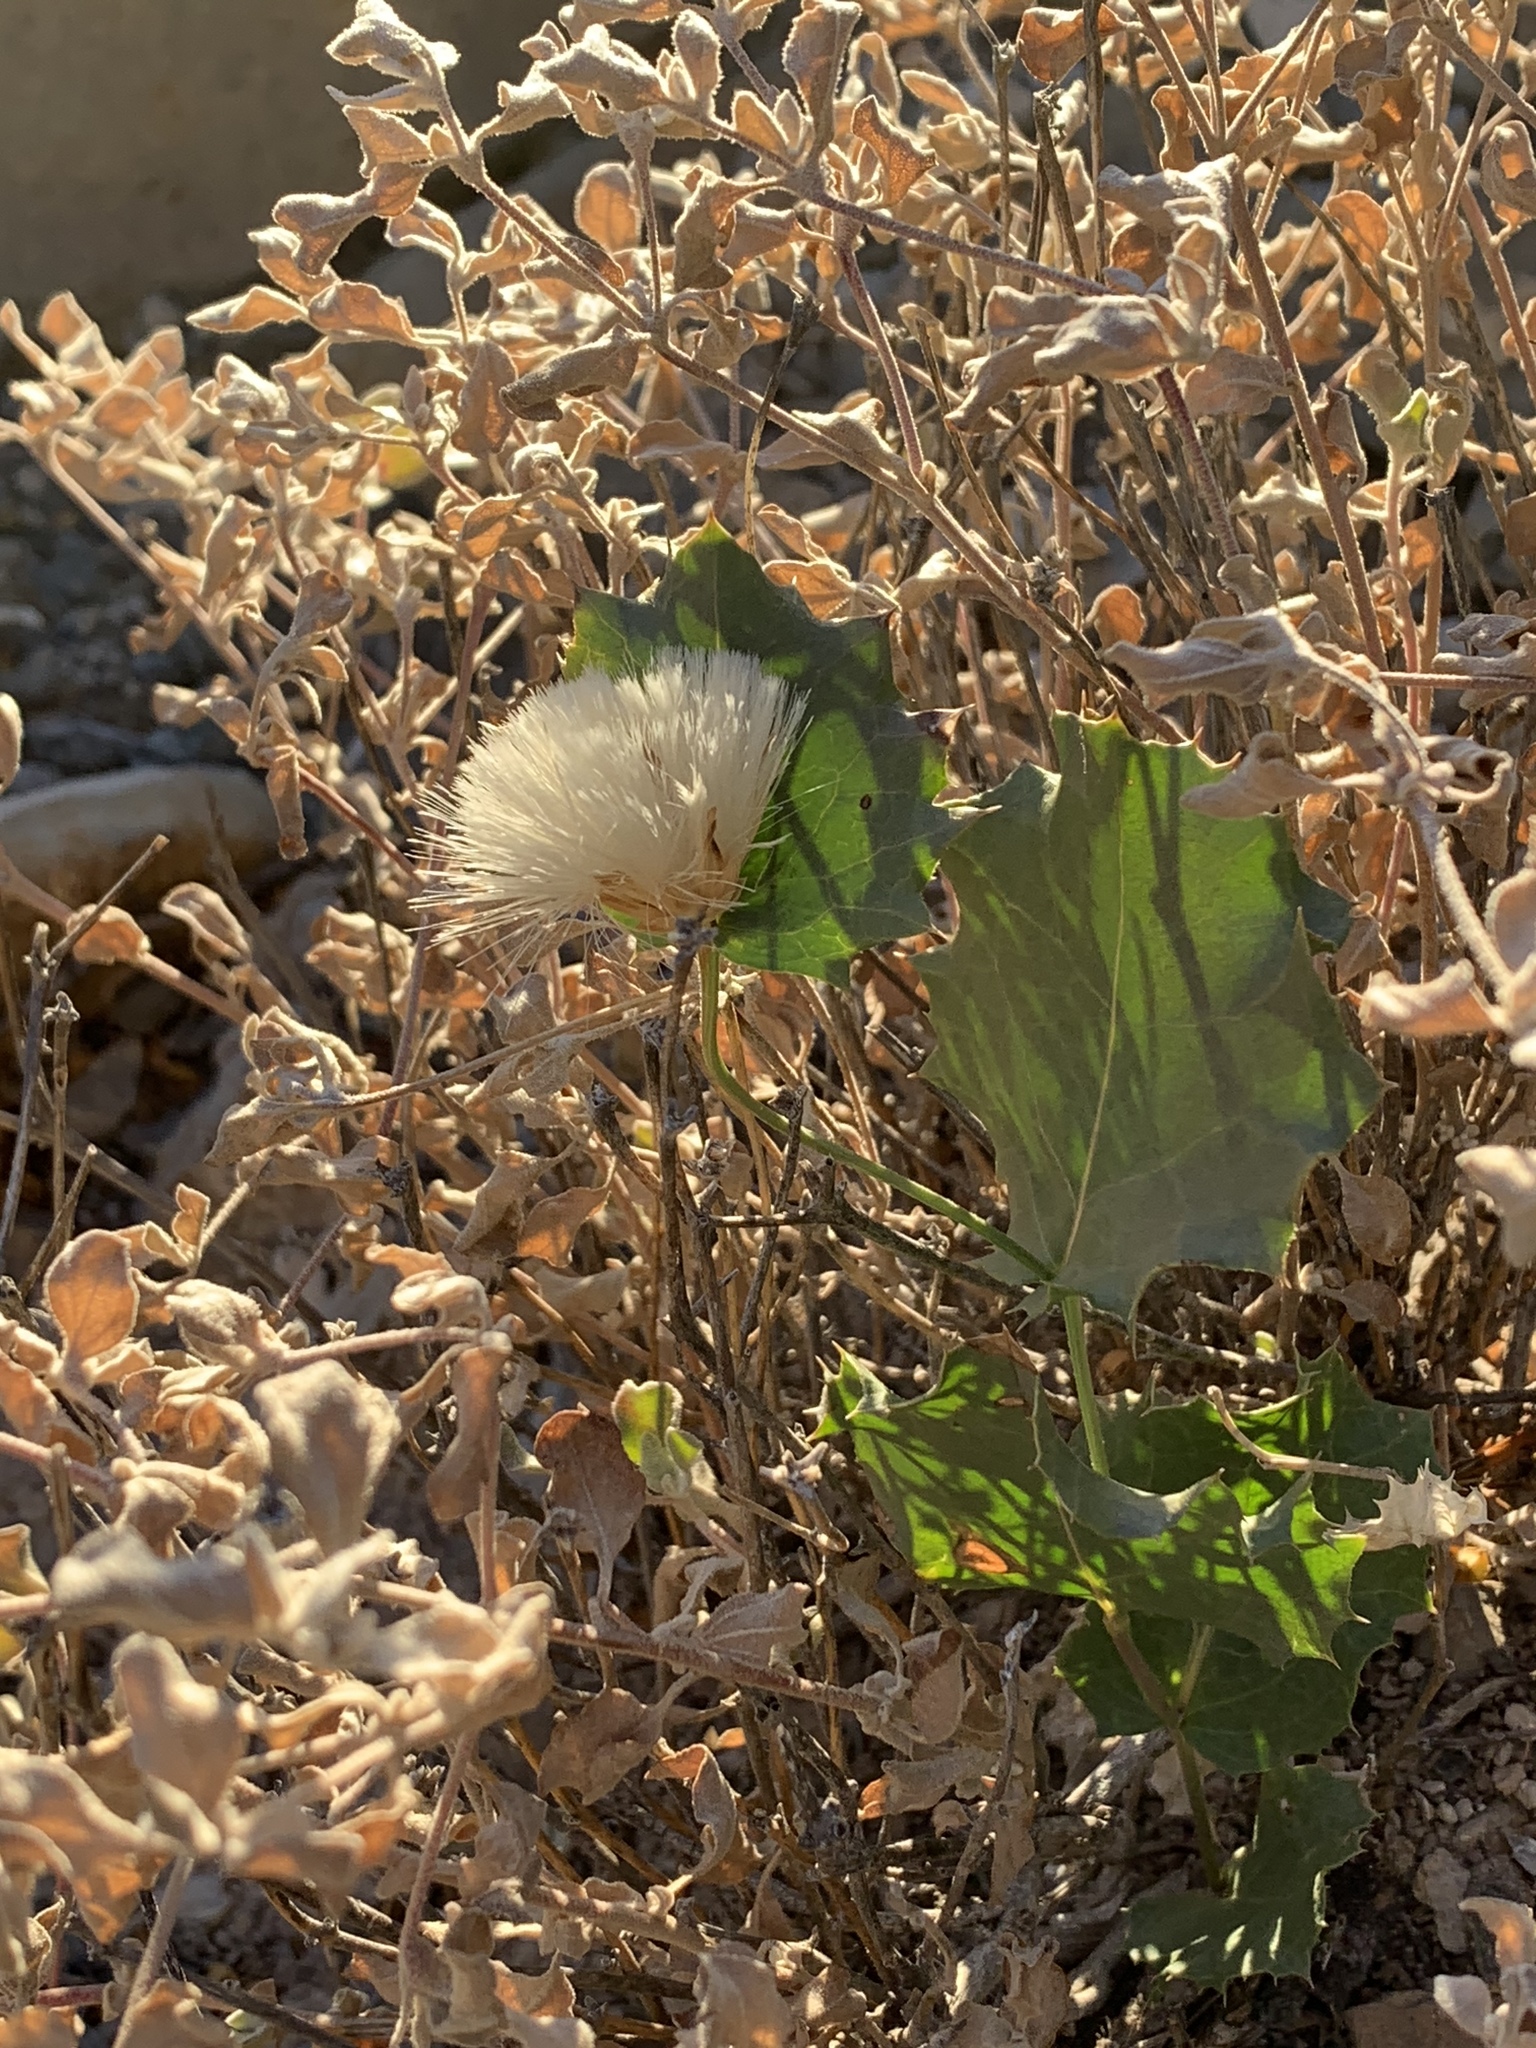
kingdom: Plantae
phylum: Tracheophyta
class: Magnoliopsida
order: Asterales
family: Asteraceae
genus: Acourtia
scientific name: Acourtia nana
